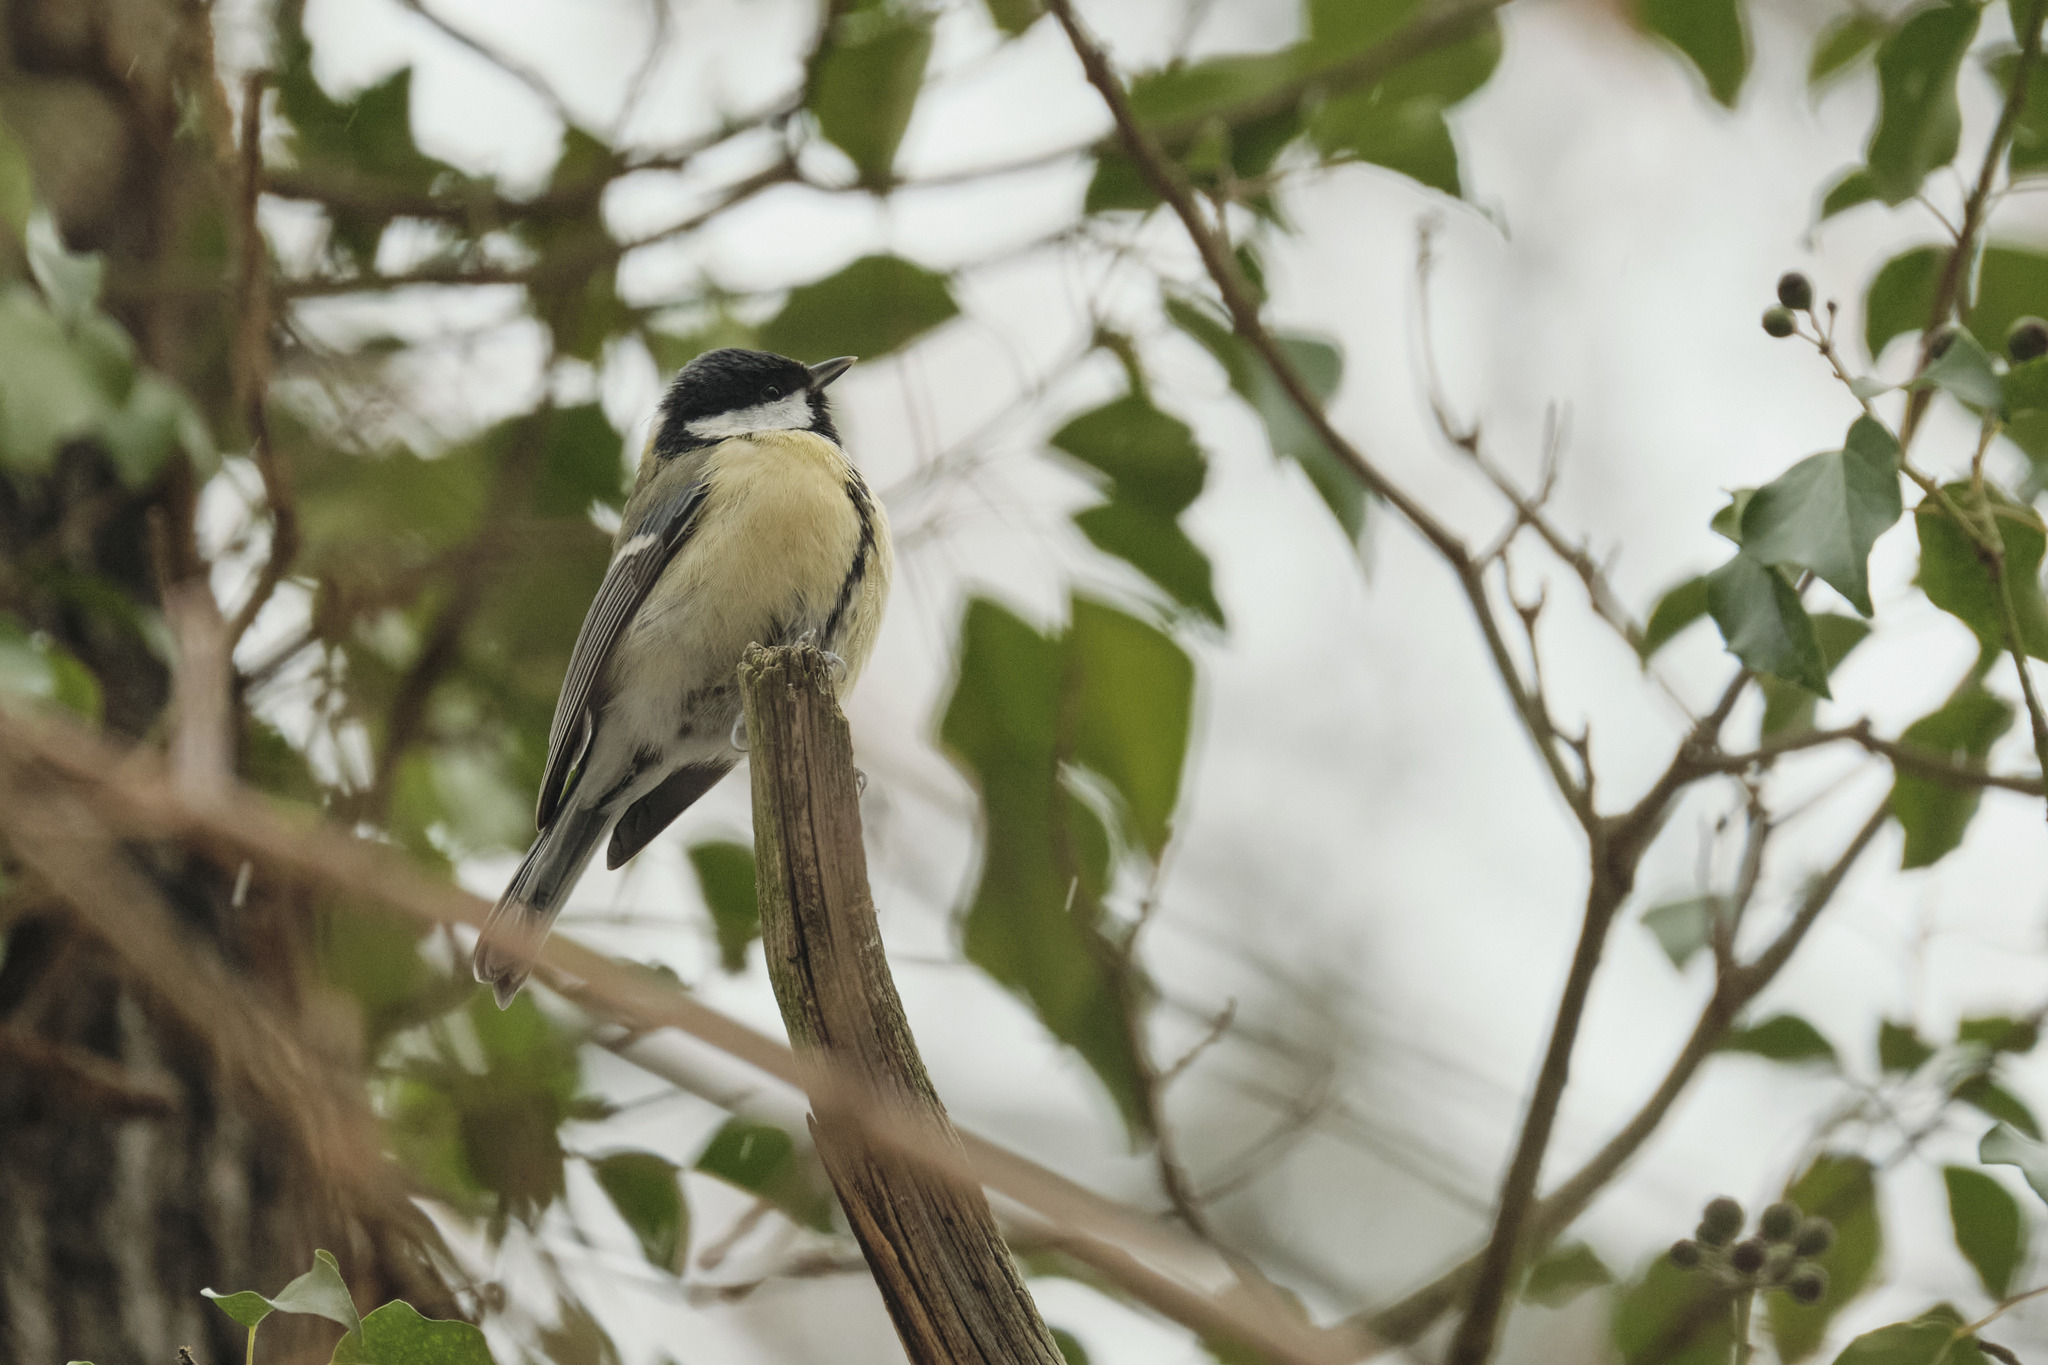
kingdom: Animalia
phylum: Chordata
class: Aves
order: Passeriformes
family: Paridae
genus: Parus
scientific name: Parus major
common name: Great tit
